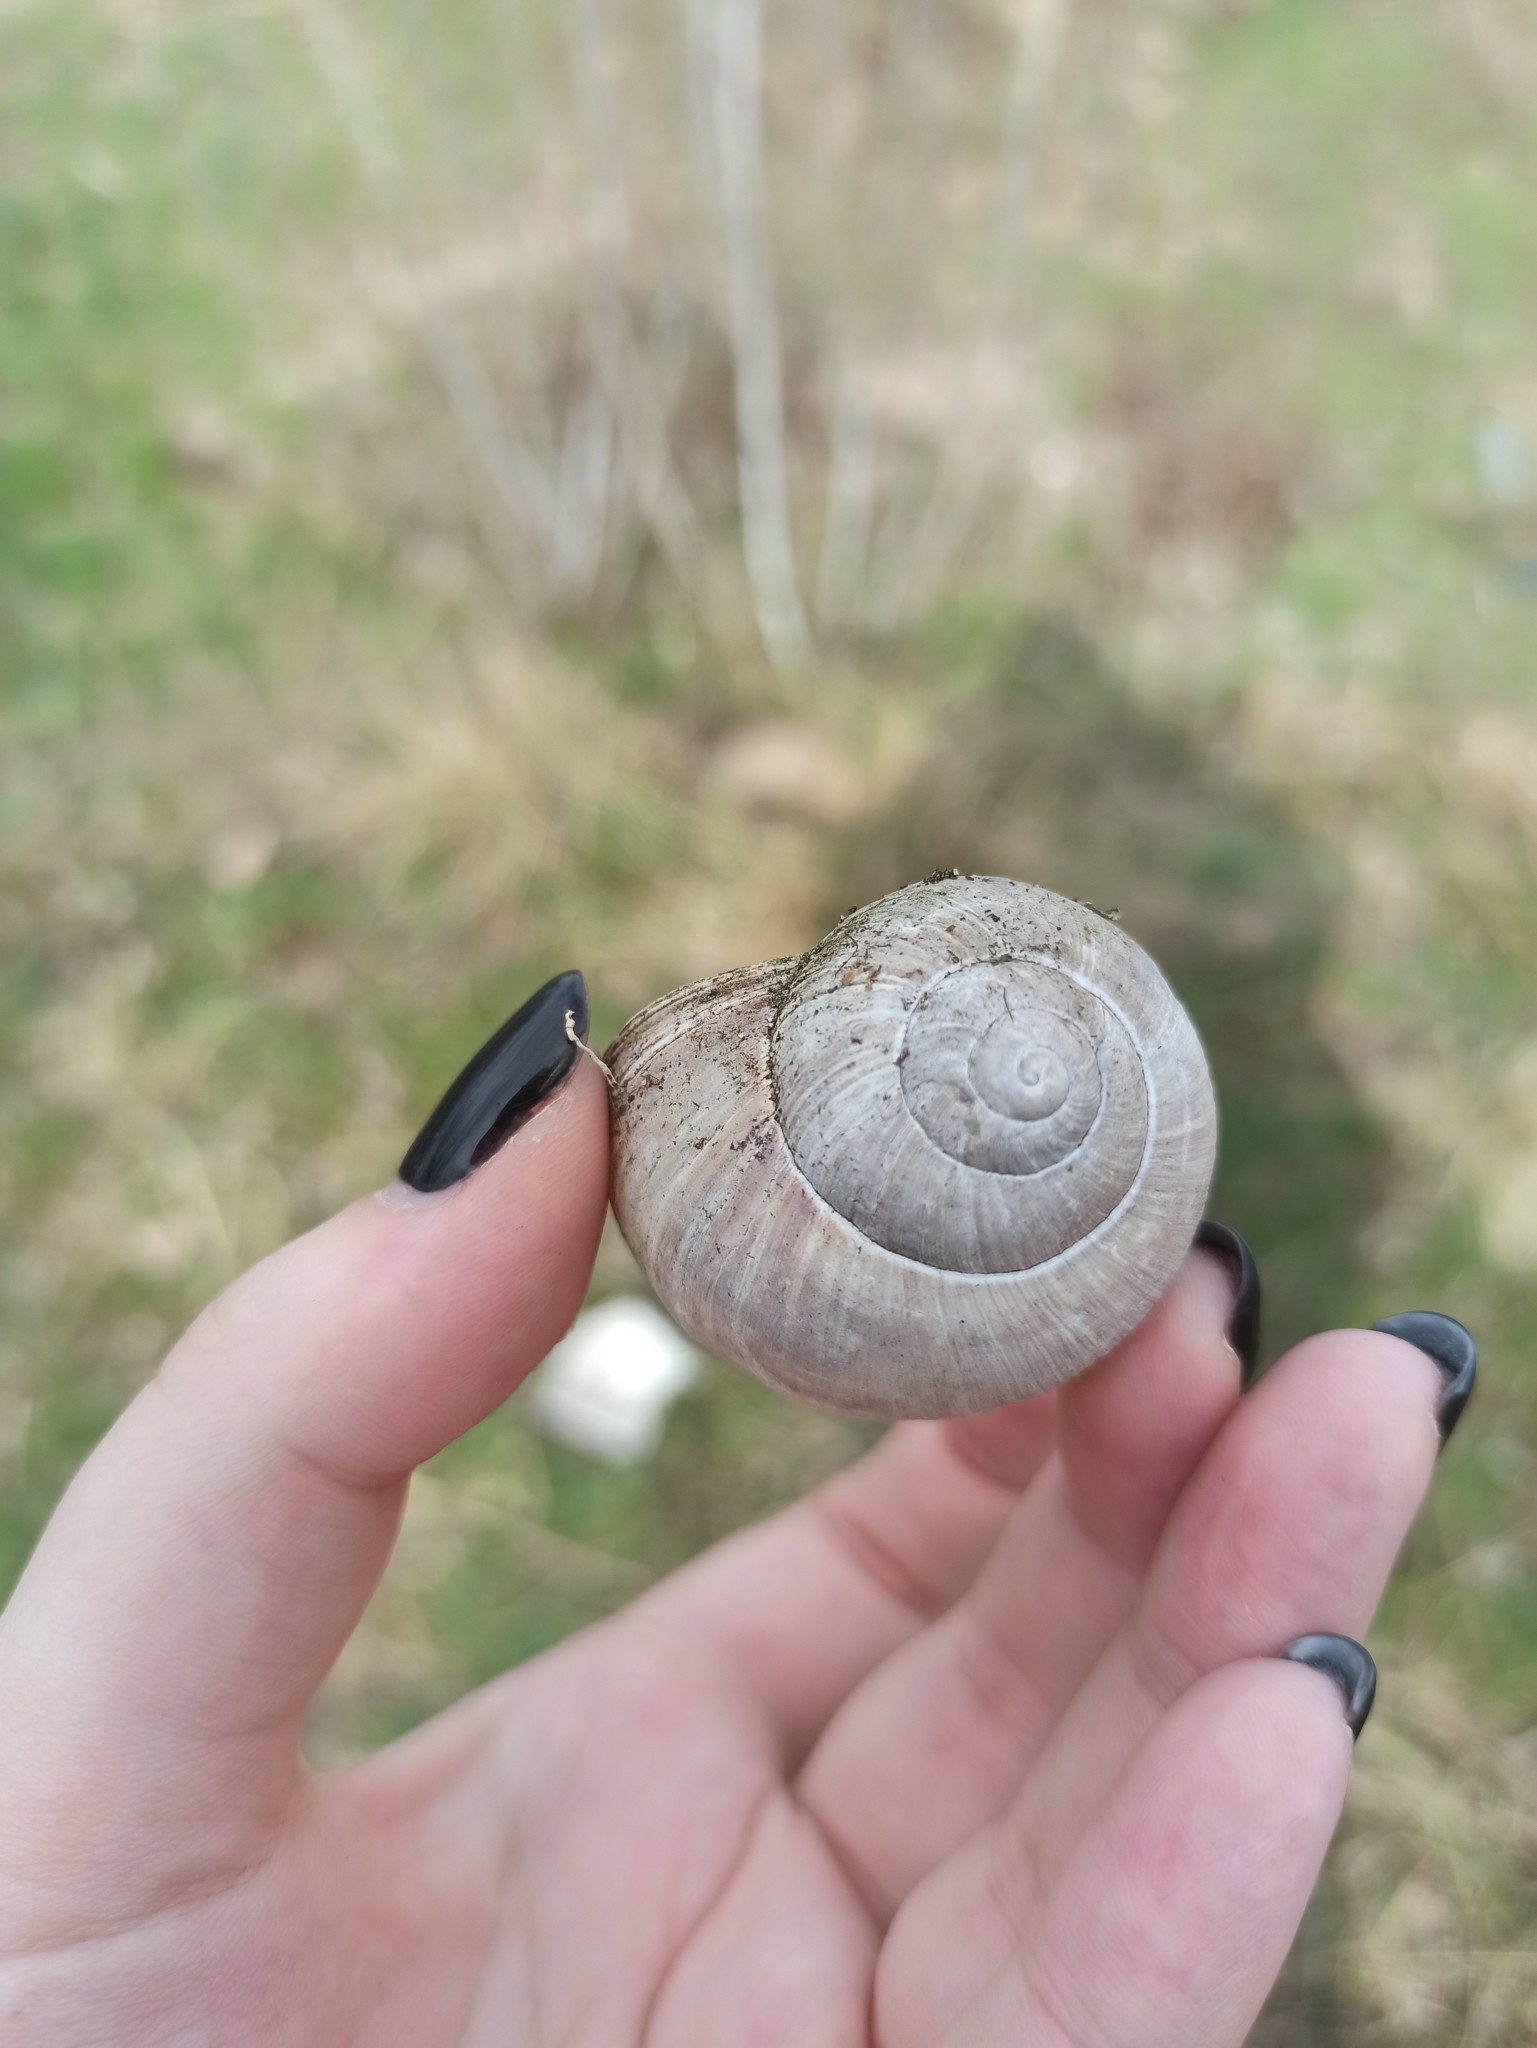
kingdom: Animalia
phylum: Mollusca
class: Gastropoda
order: Stylommatophora
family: Helicidae
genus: Helix
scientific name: Helix pomatia
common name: Roman snail
